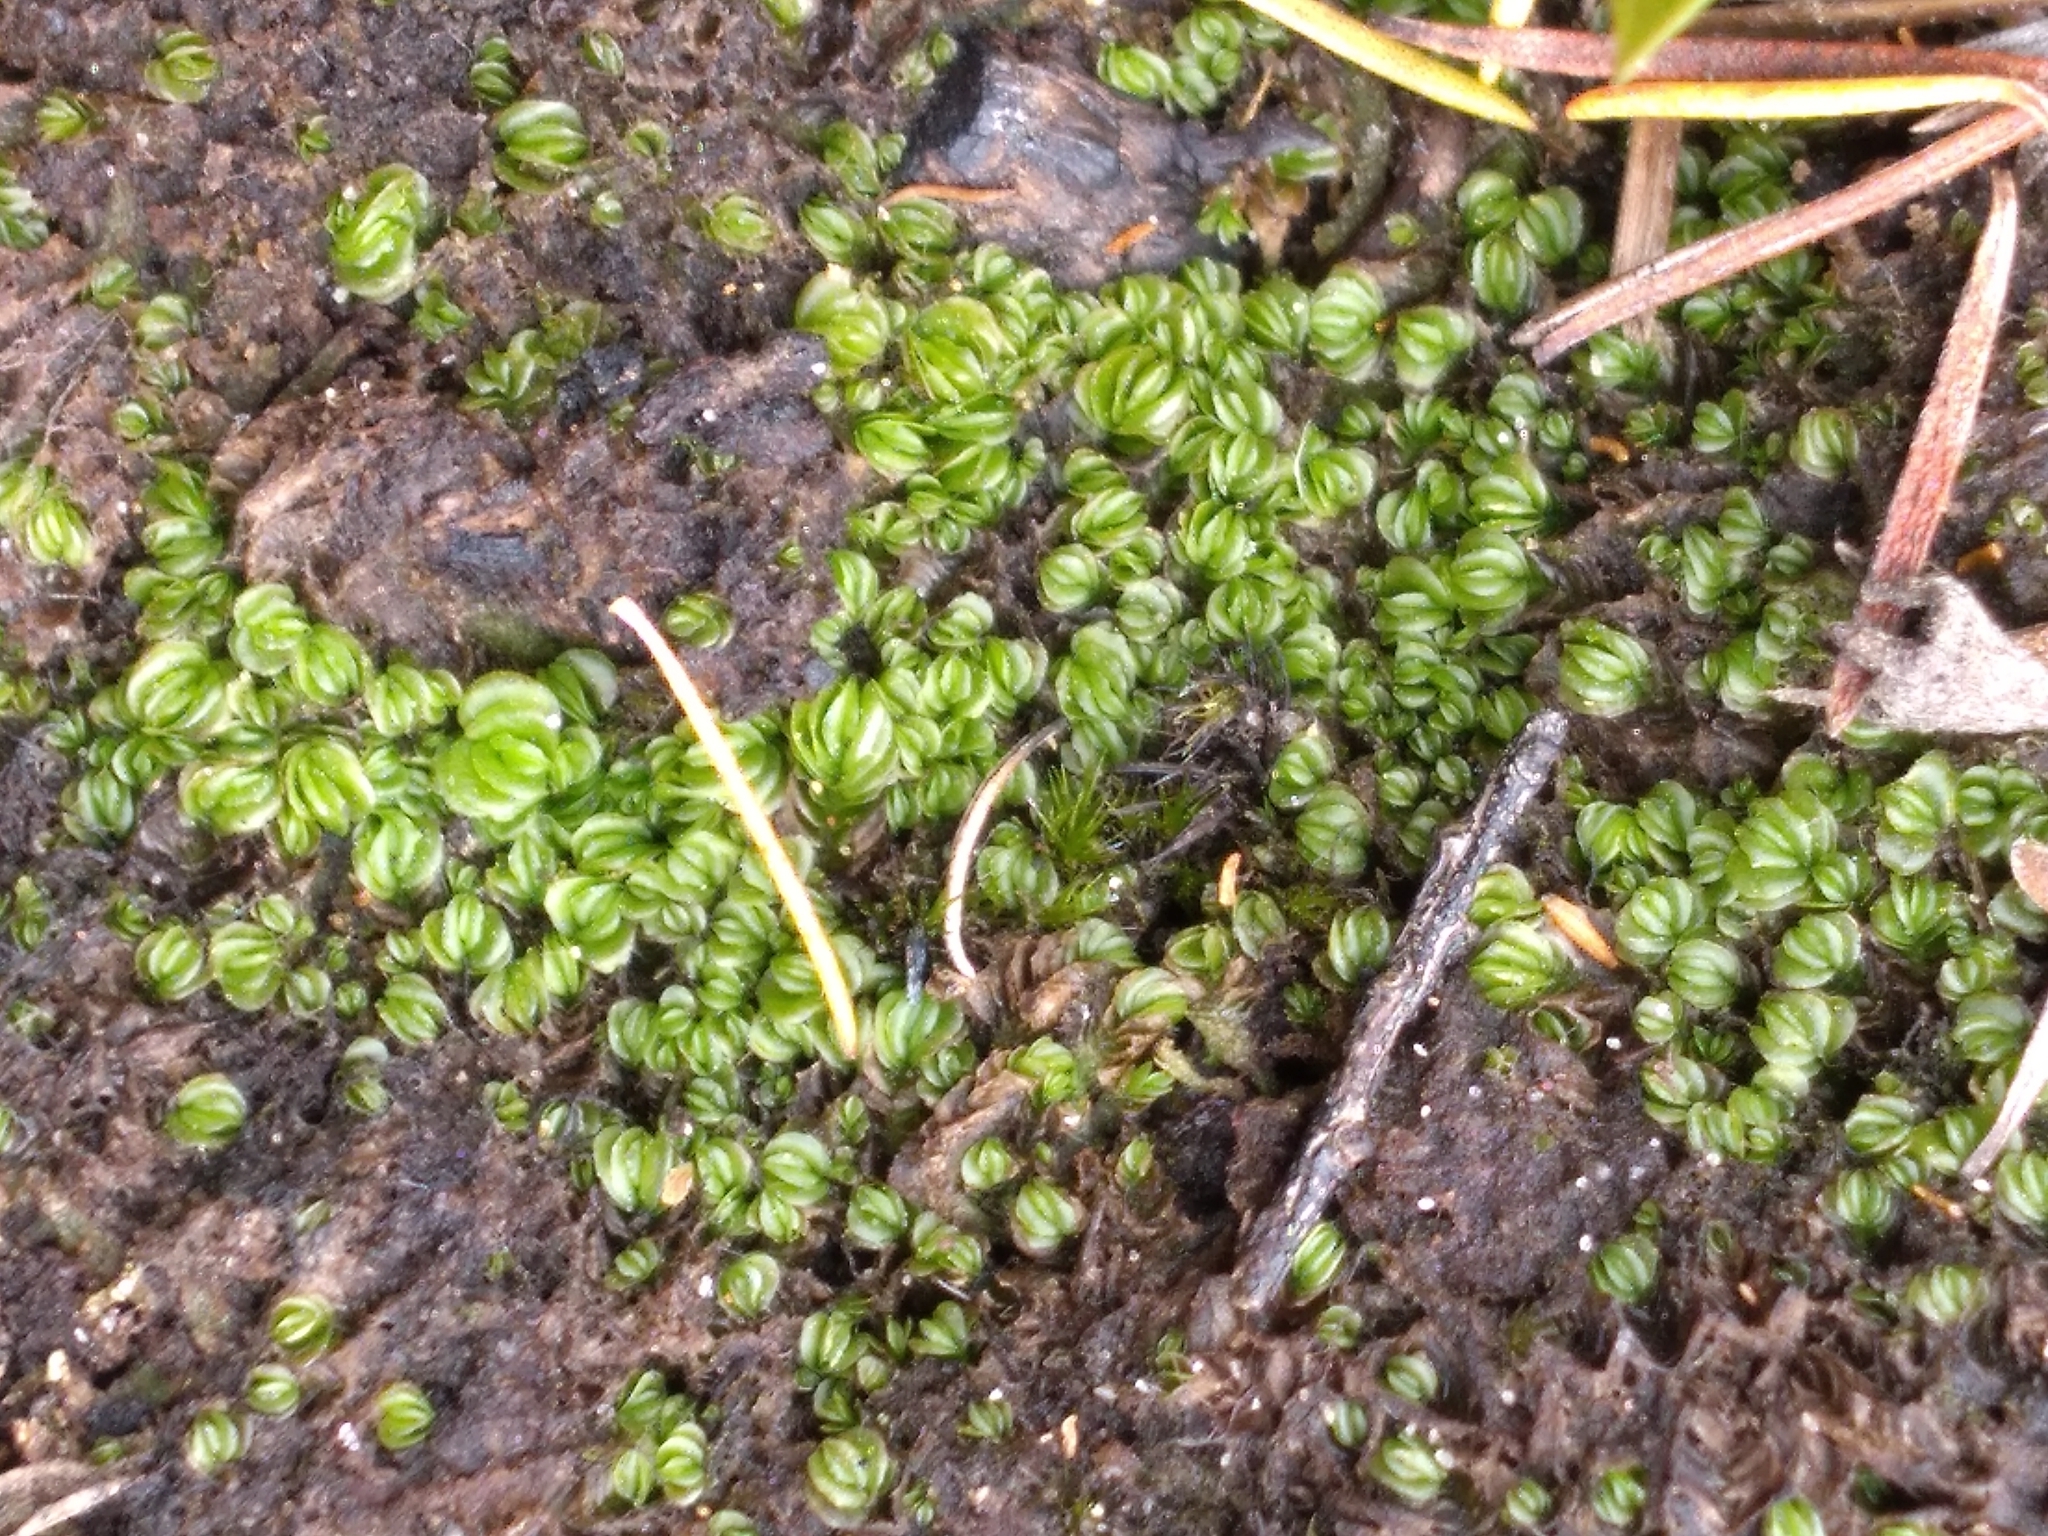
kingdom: Plantae
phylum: Marchantiophyta
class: Jungermanniopsida
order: Jungermanniales
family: Acrobolbaceae
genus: Lethocolea
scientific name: Lethocolea pansa
